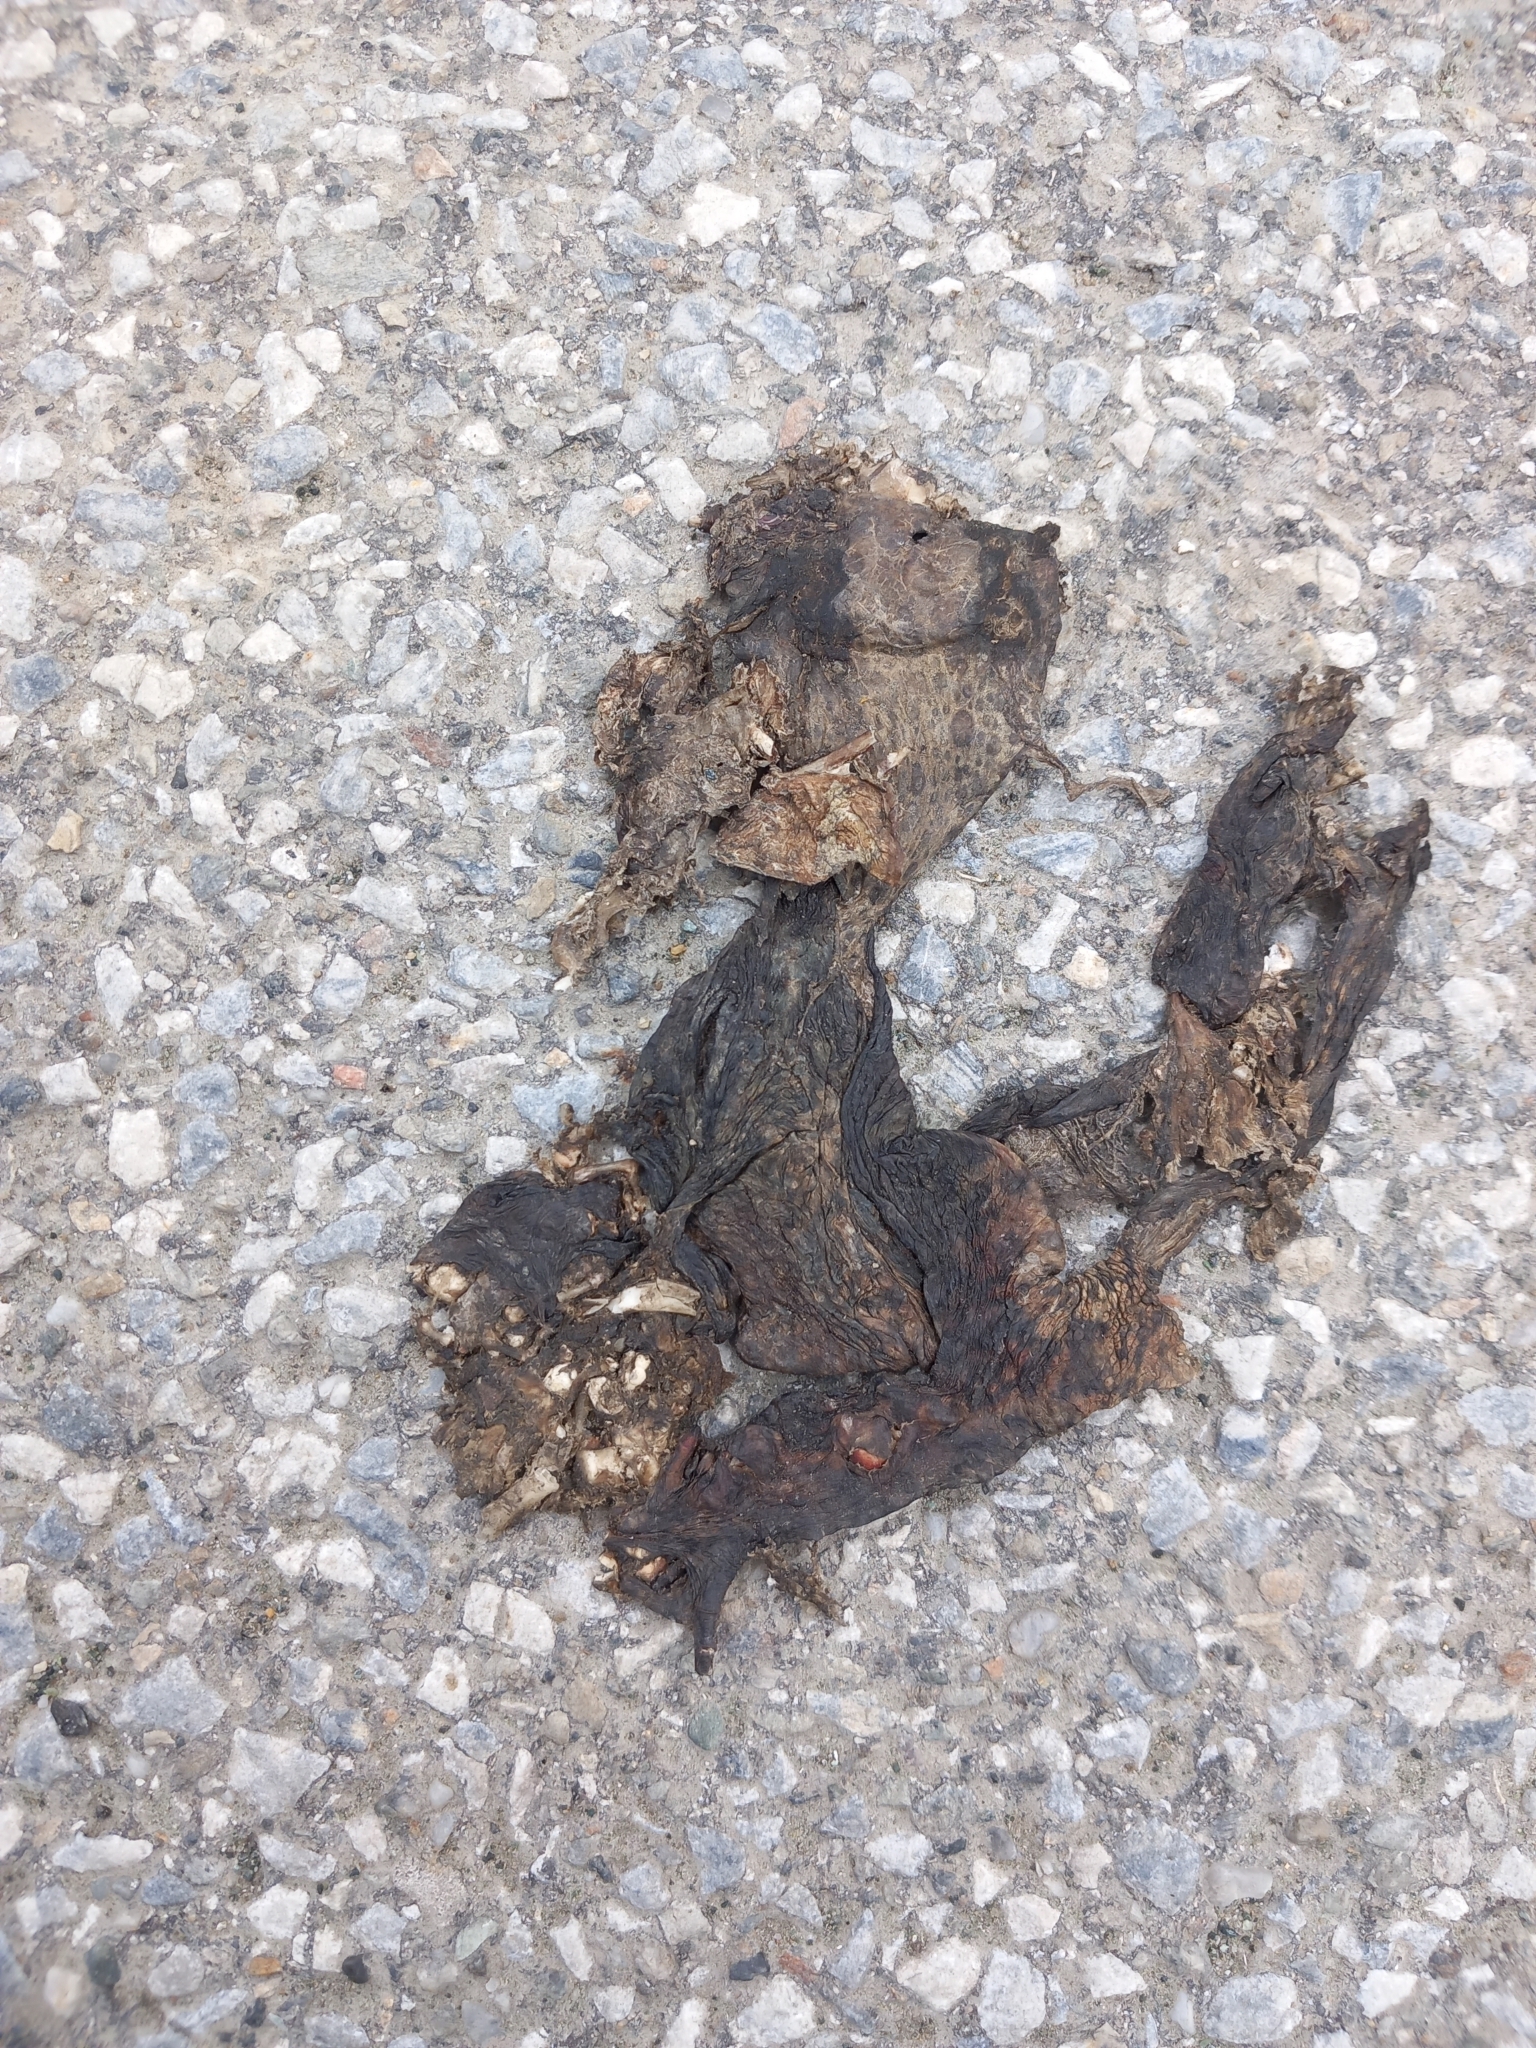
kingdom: Animalia
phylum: Chordata
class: Amphibia
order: Anura
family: Bufonidae
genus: Bufo
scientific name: Bufo bufo
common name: Common toad
